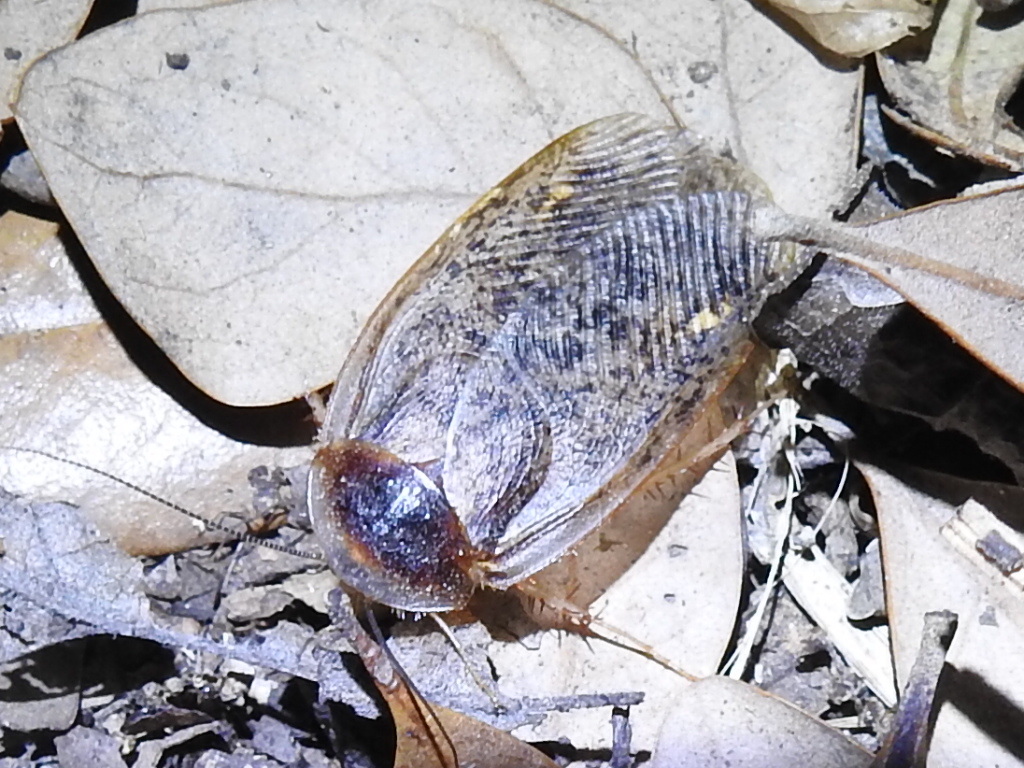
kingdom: Animalia
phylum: Arthropoda
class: Insecta
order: Blattodea
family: Corydiidae
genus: Arenivaga
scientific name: Arenivaga bolliana
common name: Boll's sand cockroach
